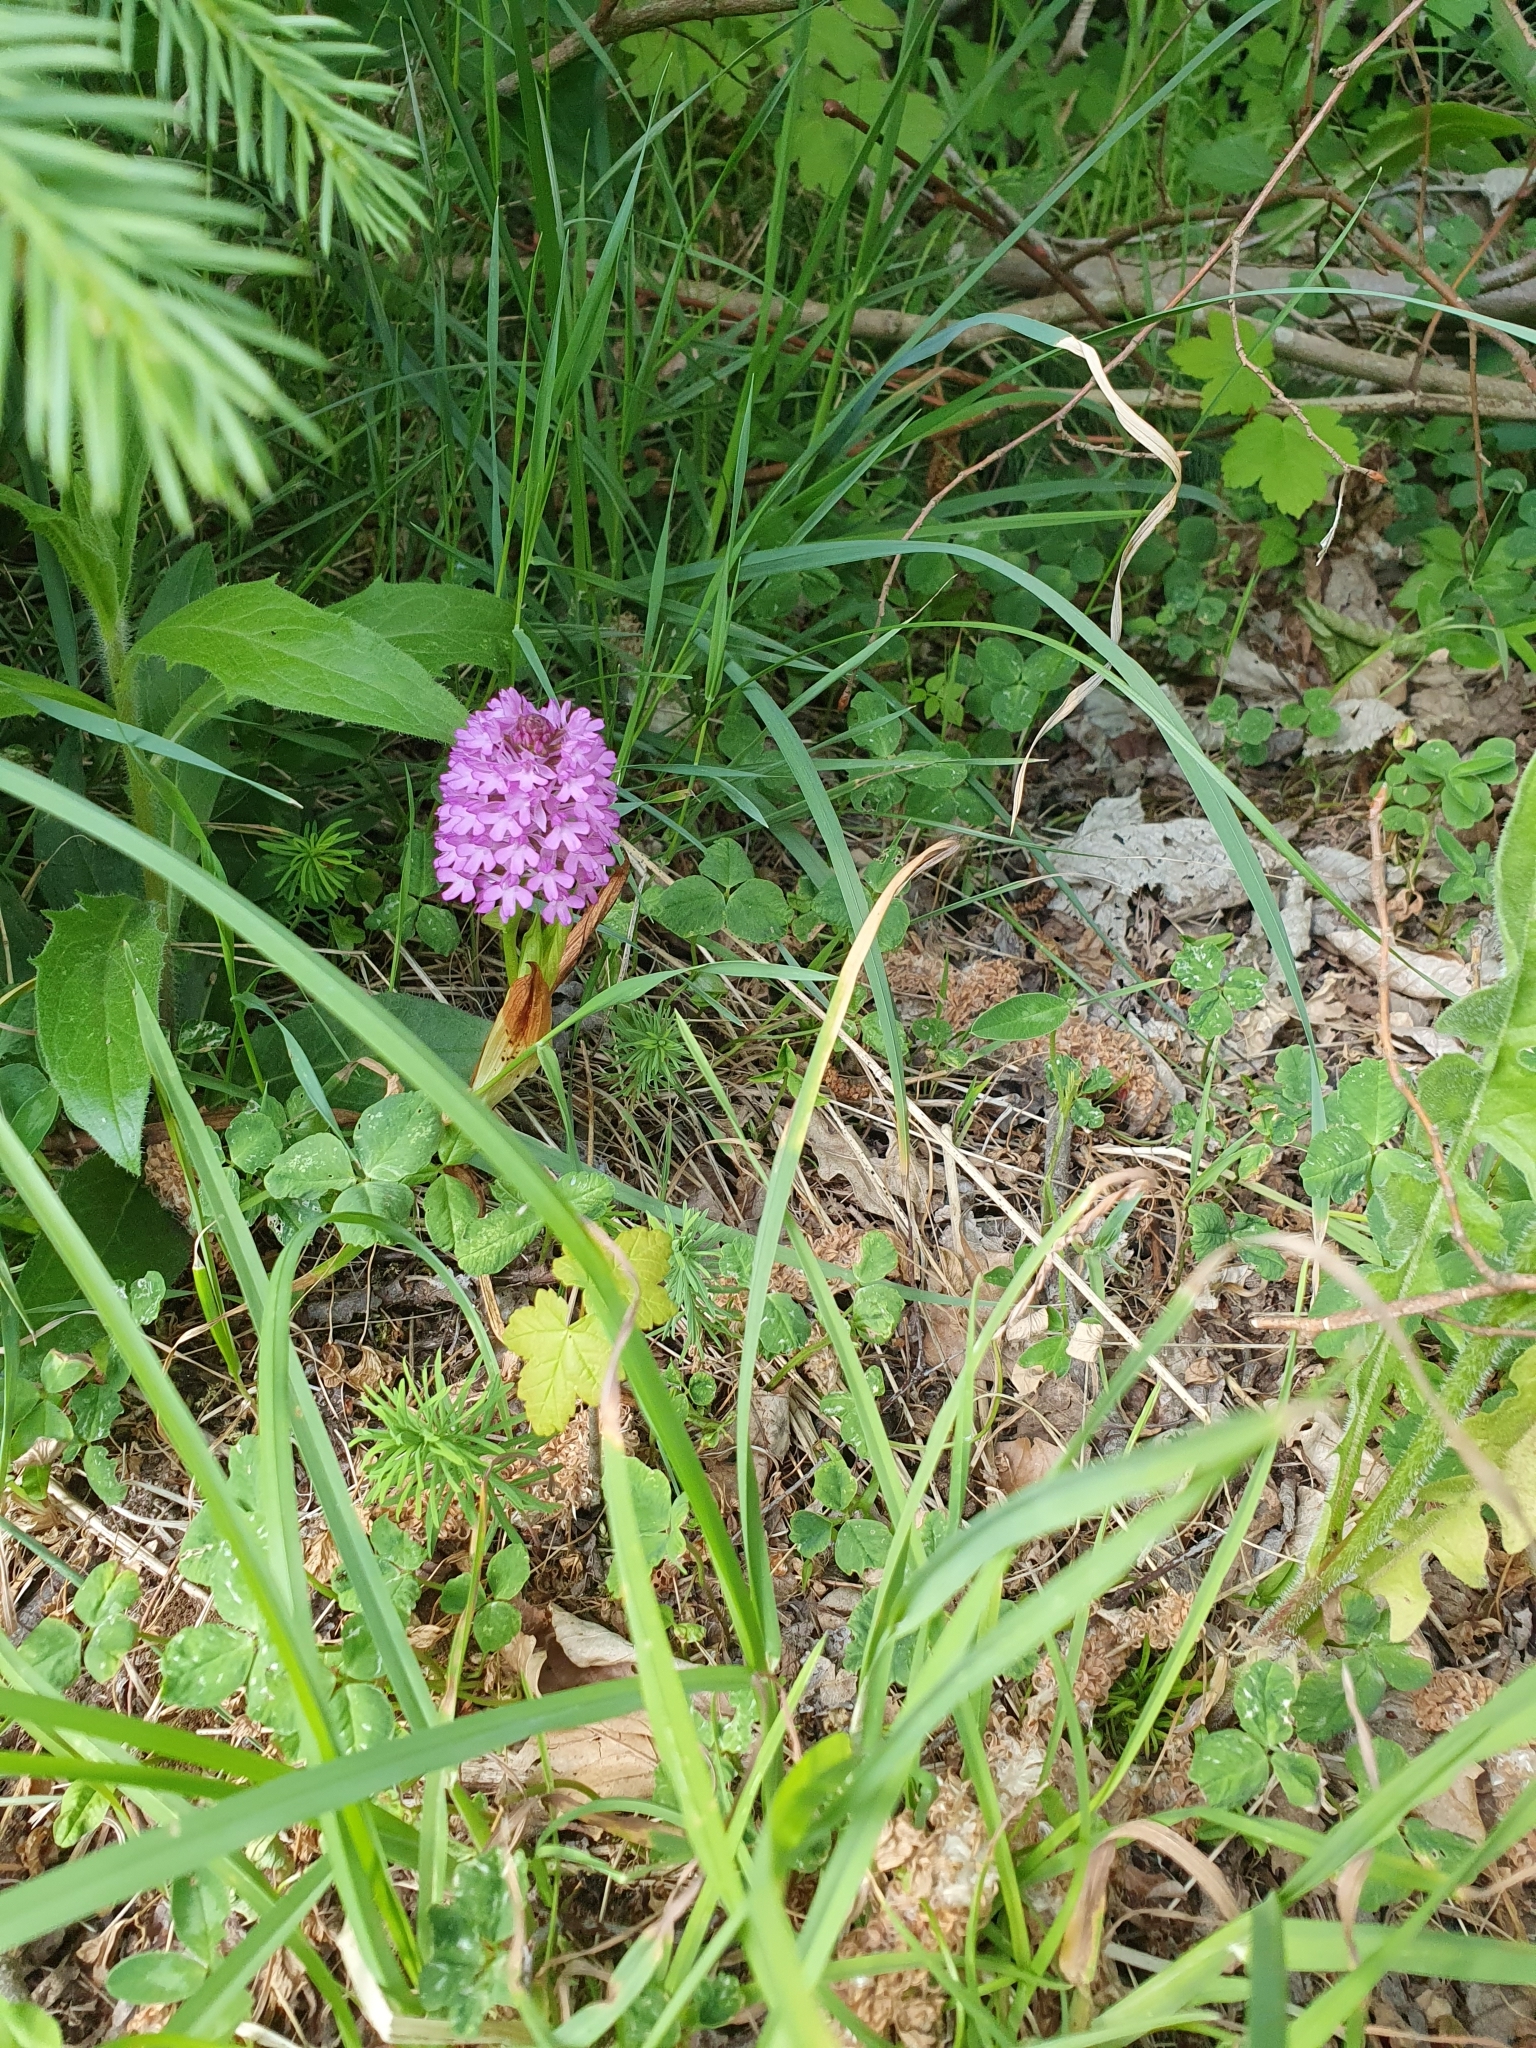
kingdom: Plantae
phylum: Tracheophyta
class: Liliopsida
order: Asparagales
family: Orchidaceae
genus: Anacamptis
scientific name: Anacamptis pyramidalis
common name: Pyramidal orchid
